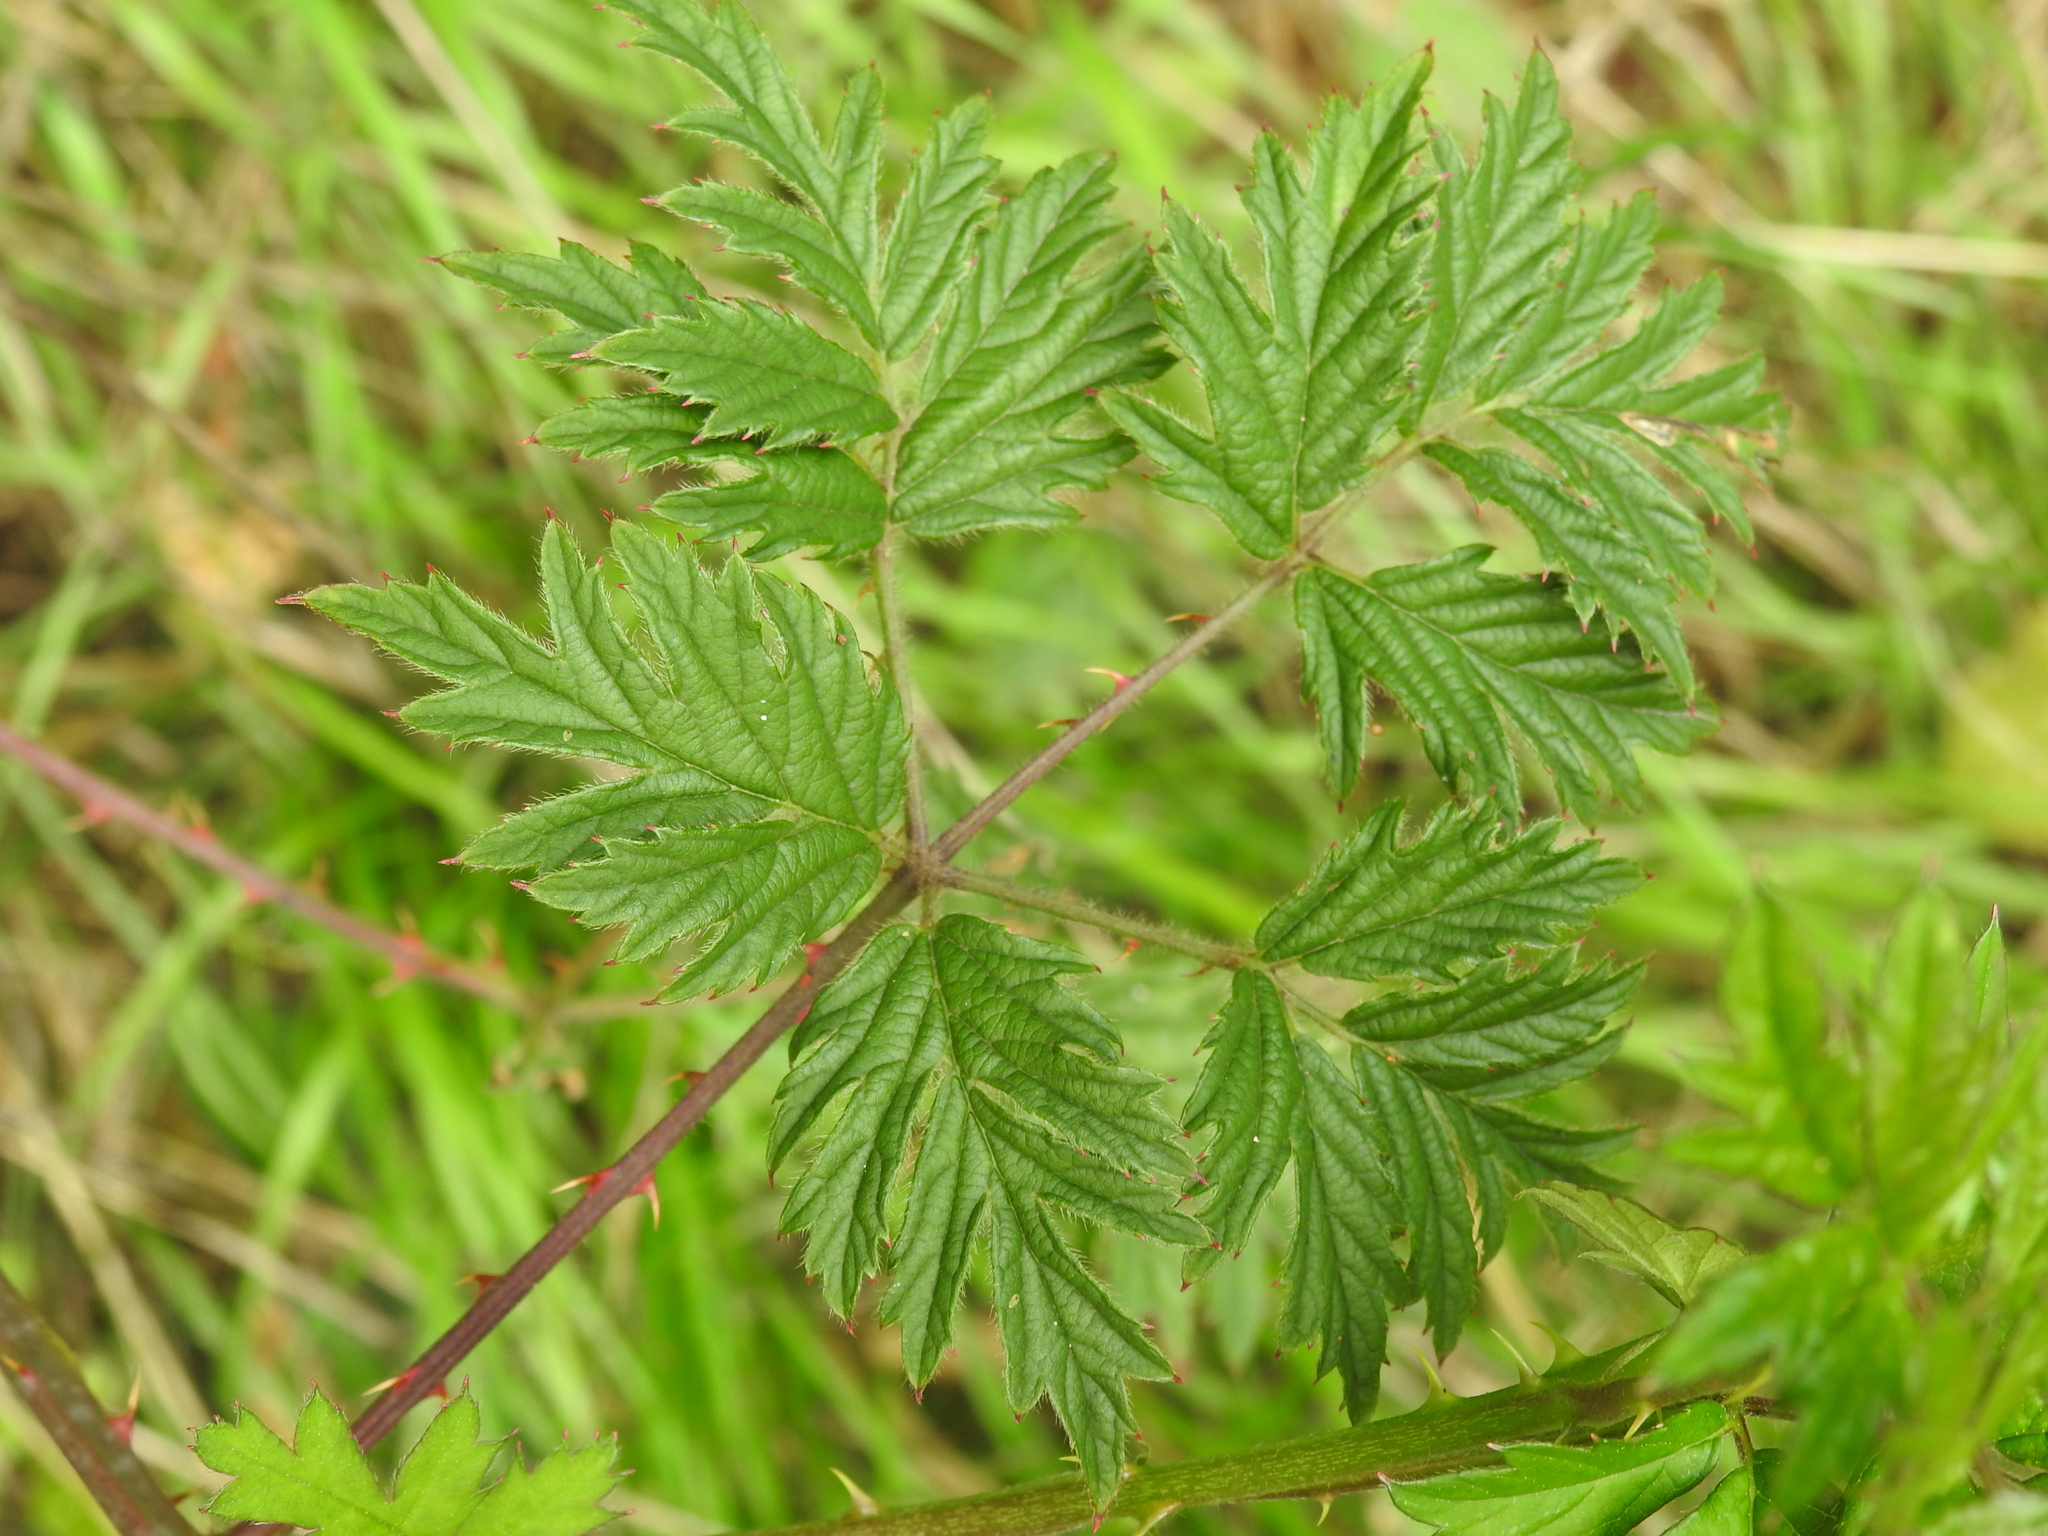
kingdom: Plantae
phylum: Tracheophyta
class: Magnoliopsida
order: Rosales
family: Rosaceae
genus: Rubus
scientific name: Rubus laciniatus
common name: Evergreen blackberry
